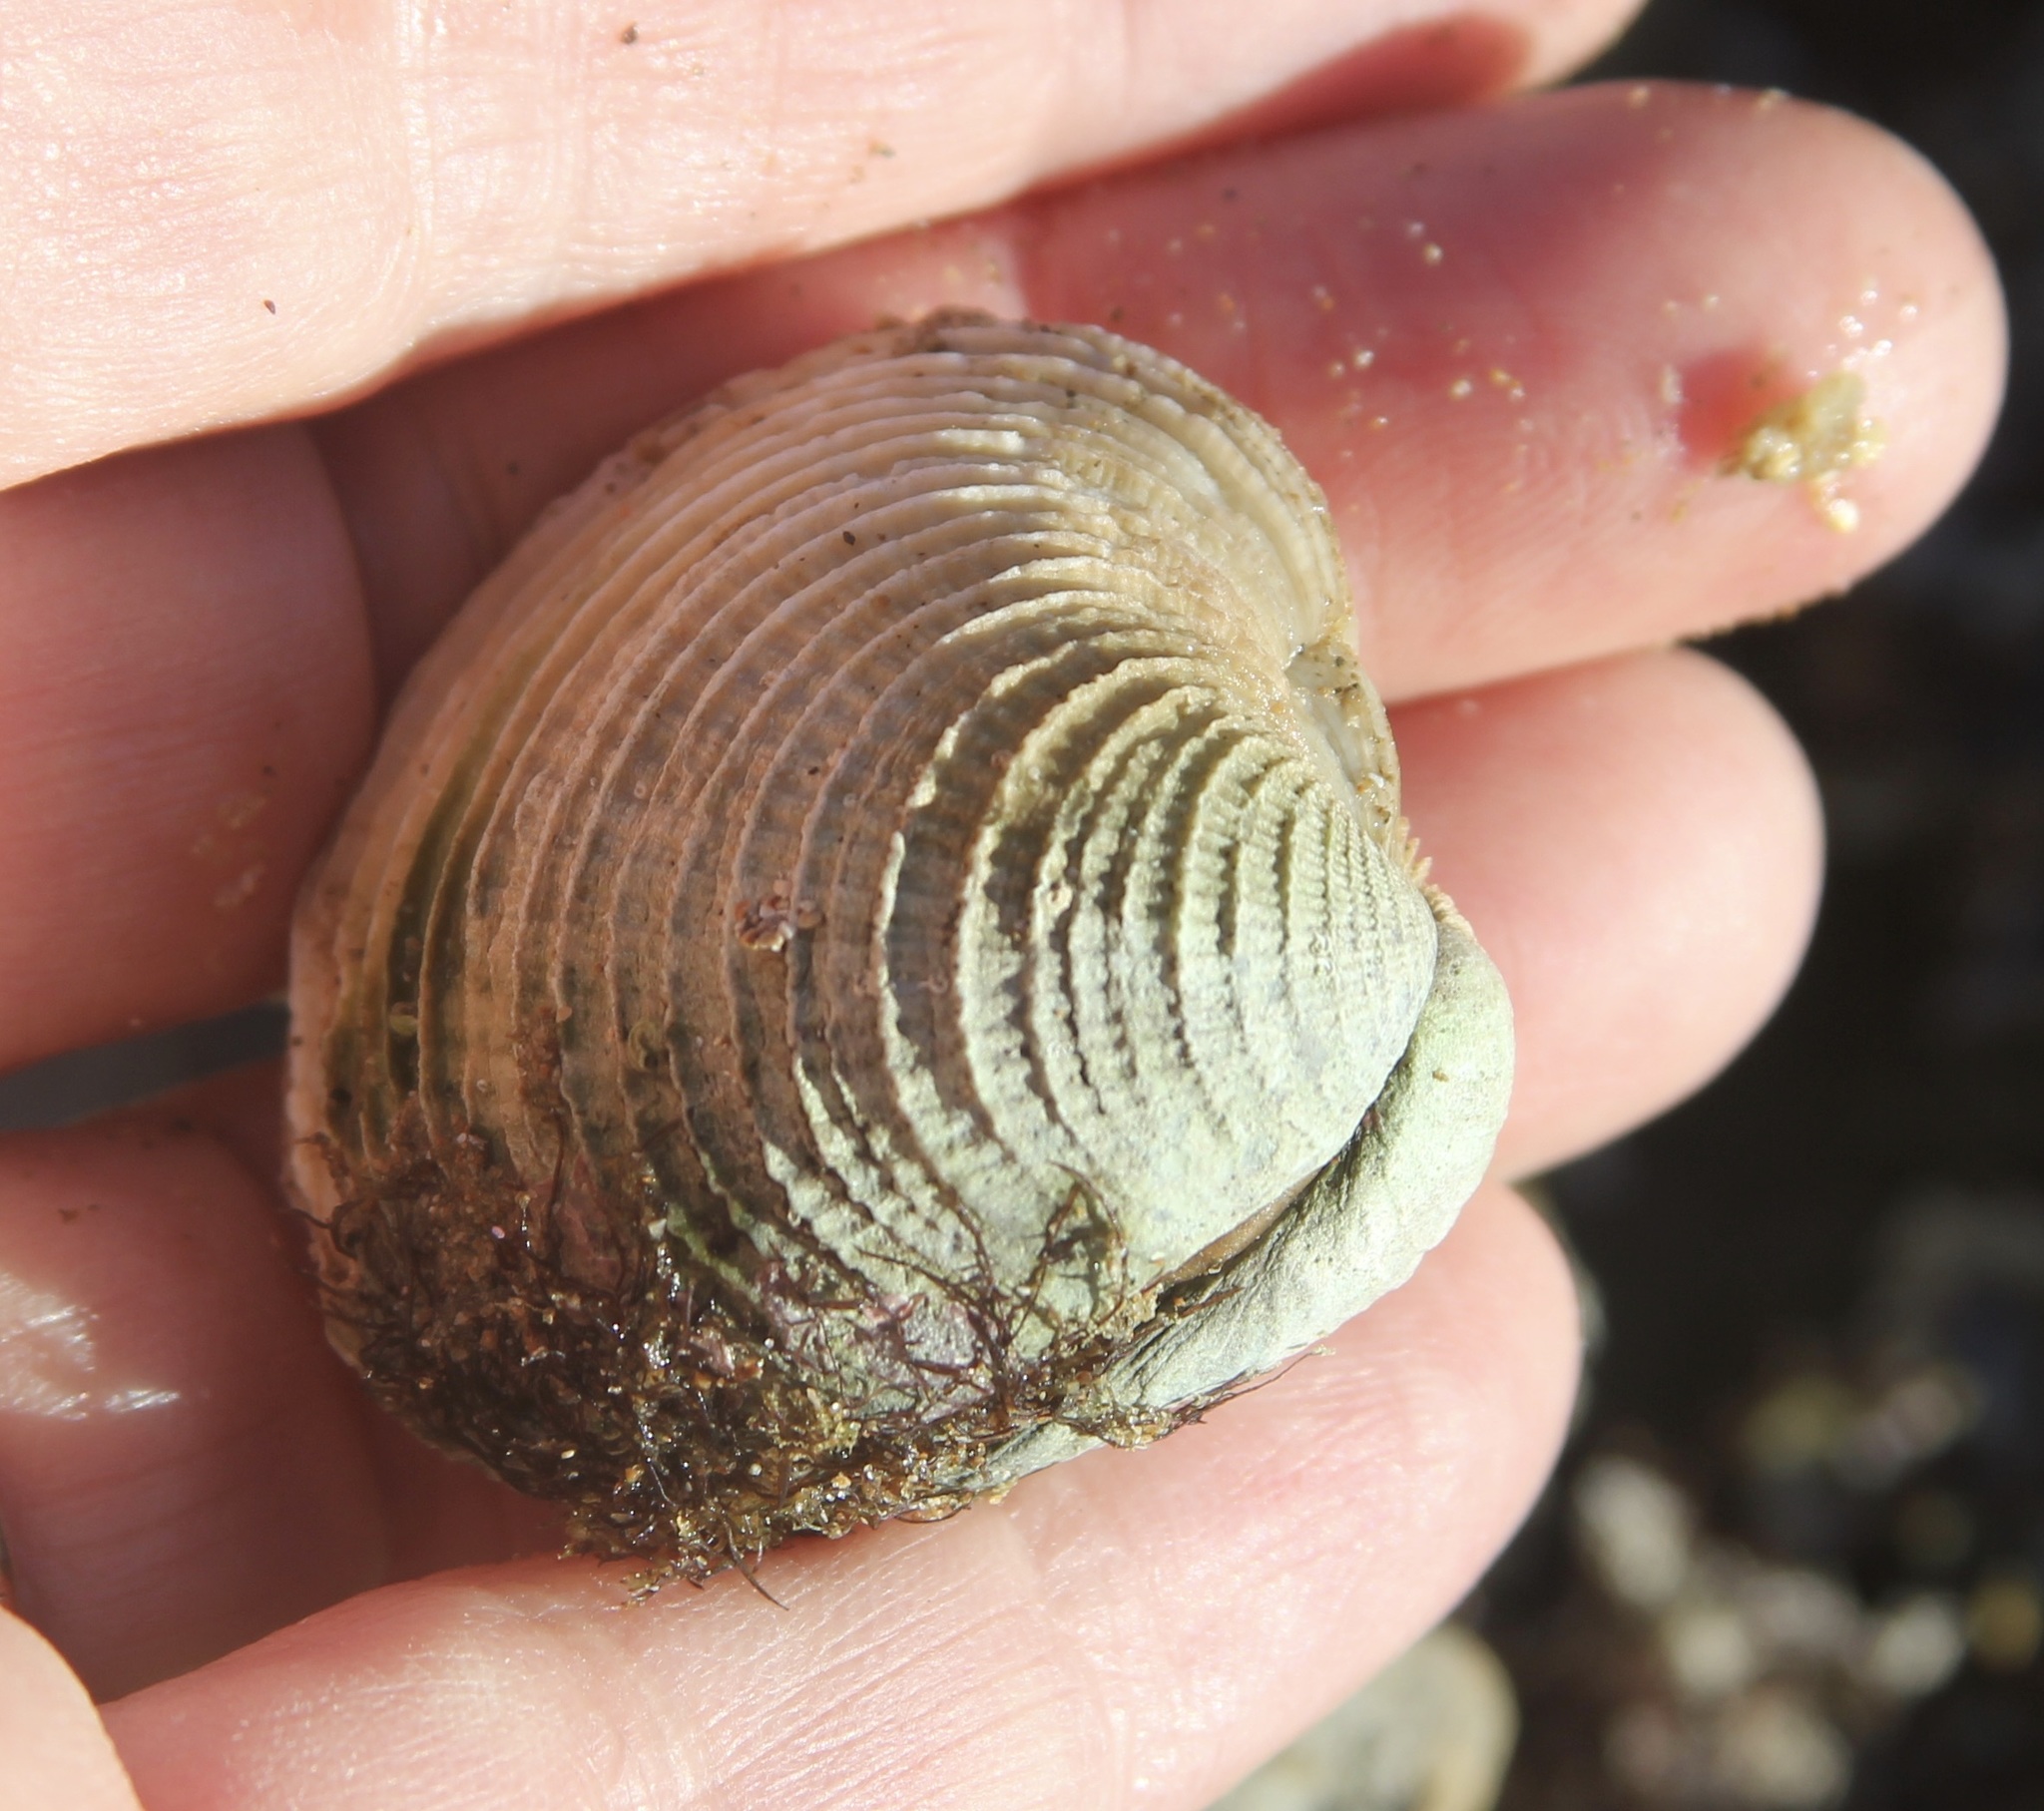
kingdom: Animalia
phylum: Mollusca
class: Bivalvia
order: Venerida
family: Veneridae
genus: Chione
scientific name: Chione californiensis
